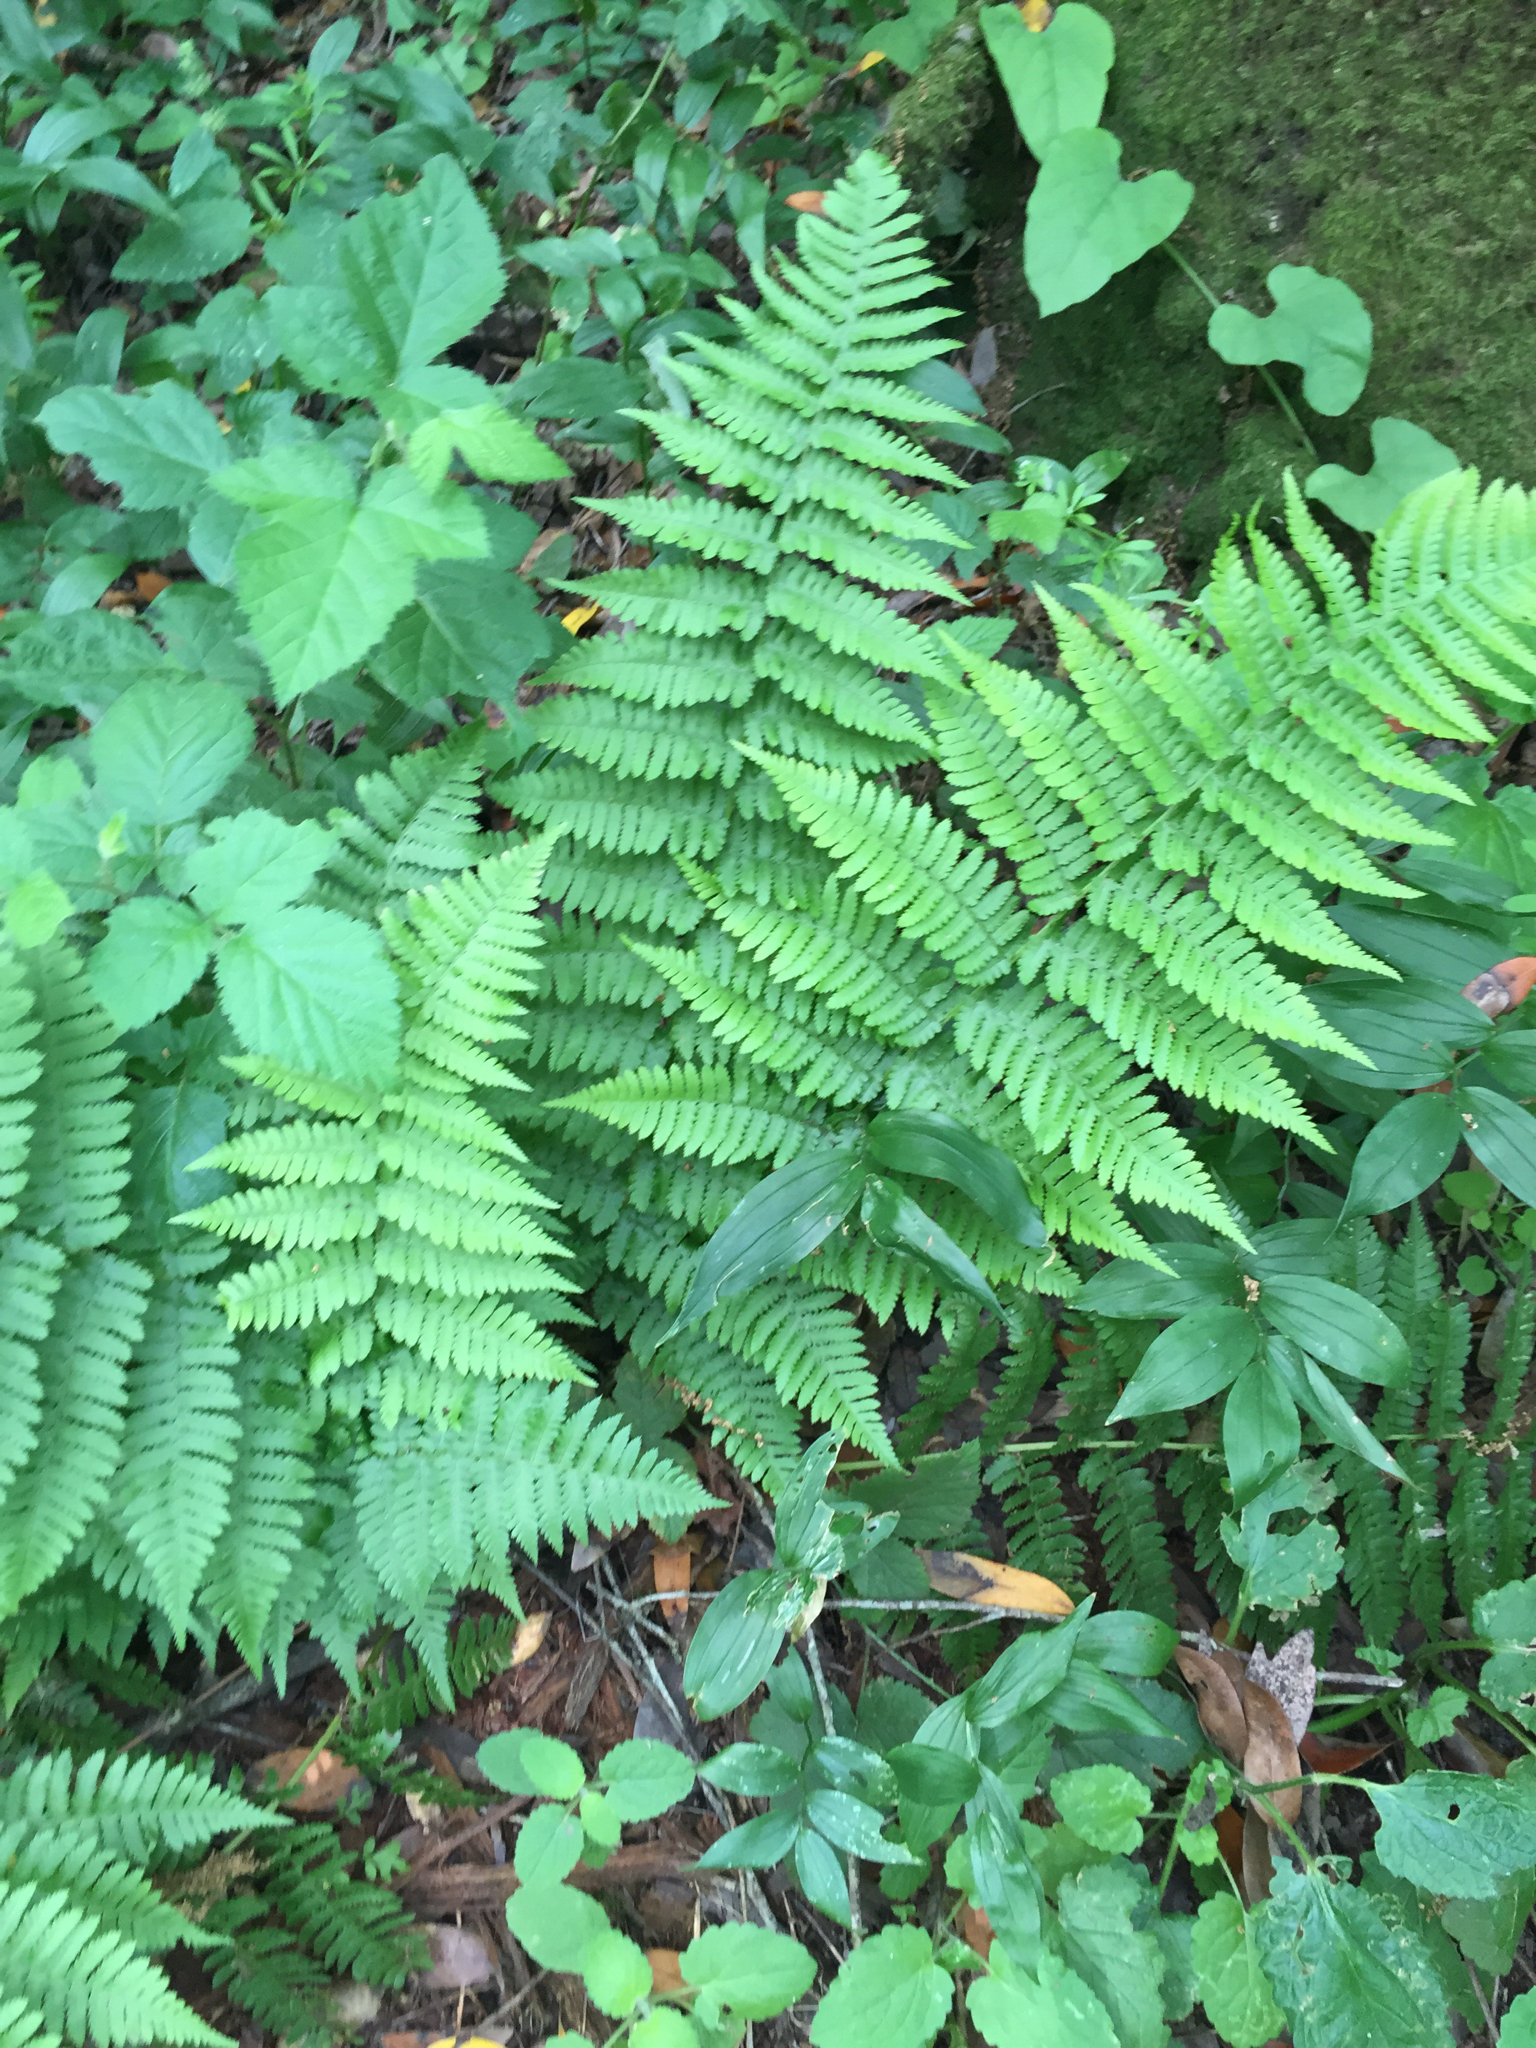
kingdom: Plantae
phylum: Tracheophyta
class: Polypodiopsida
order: Polypodiales
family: Dryopteridaceae
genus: Dryopteris
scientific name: Dryopteris arguta
